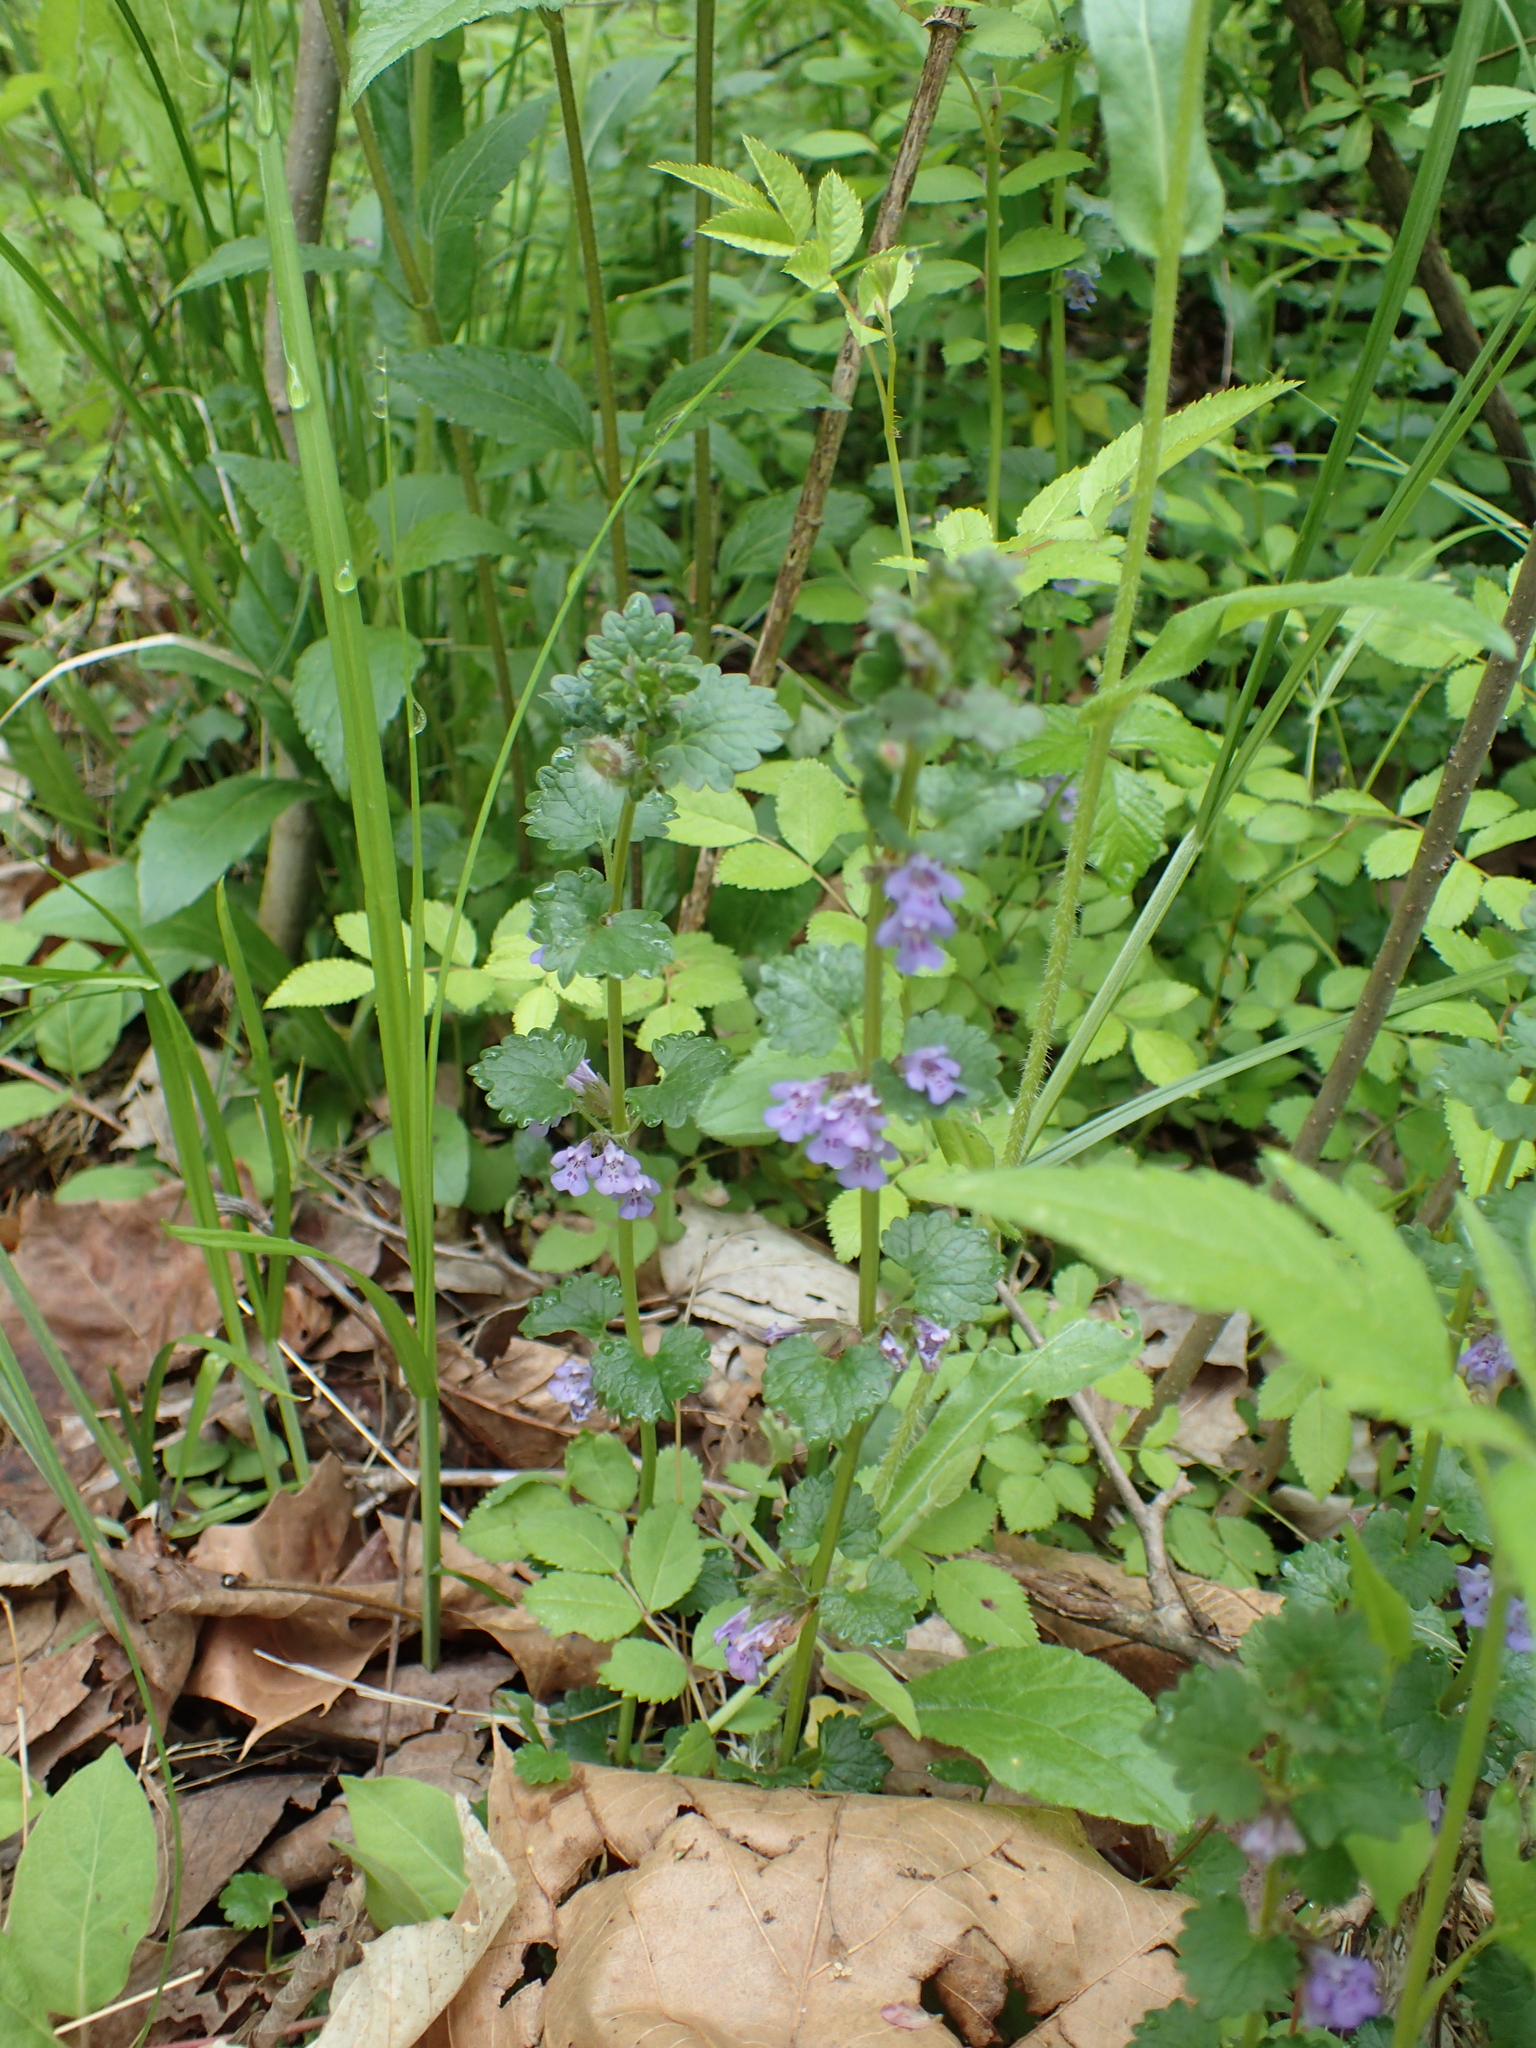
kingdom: Plantae
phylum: Tracheophyta
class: Magnoliopsida
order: Lamiales
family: Lamiaceae
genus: Glechoma
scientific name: Glechoma hederacea
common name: Ground ivy
